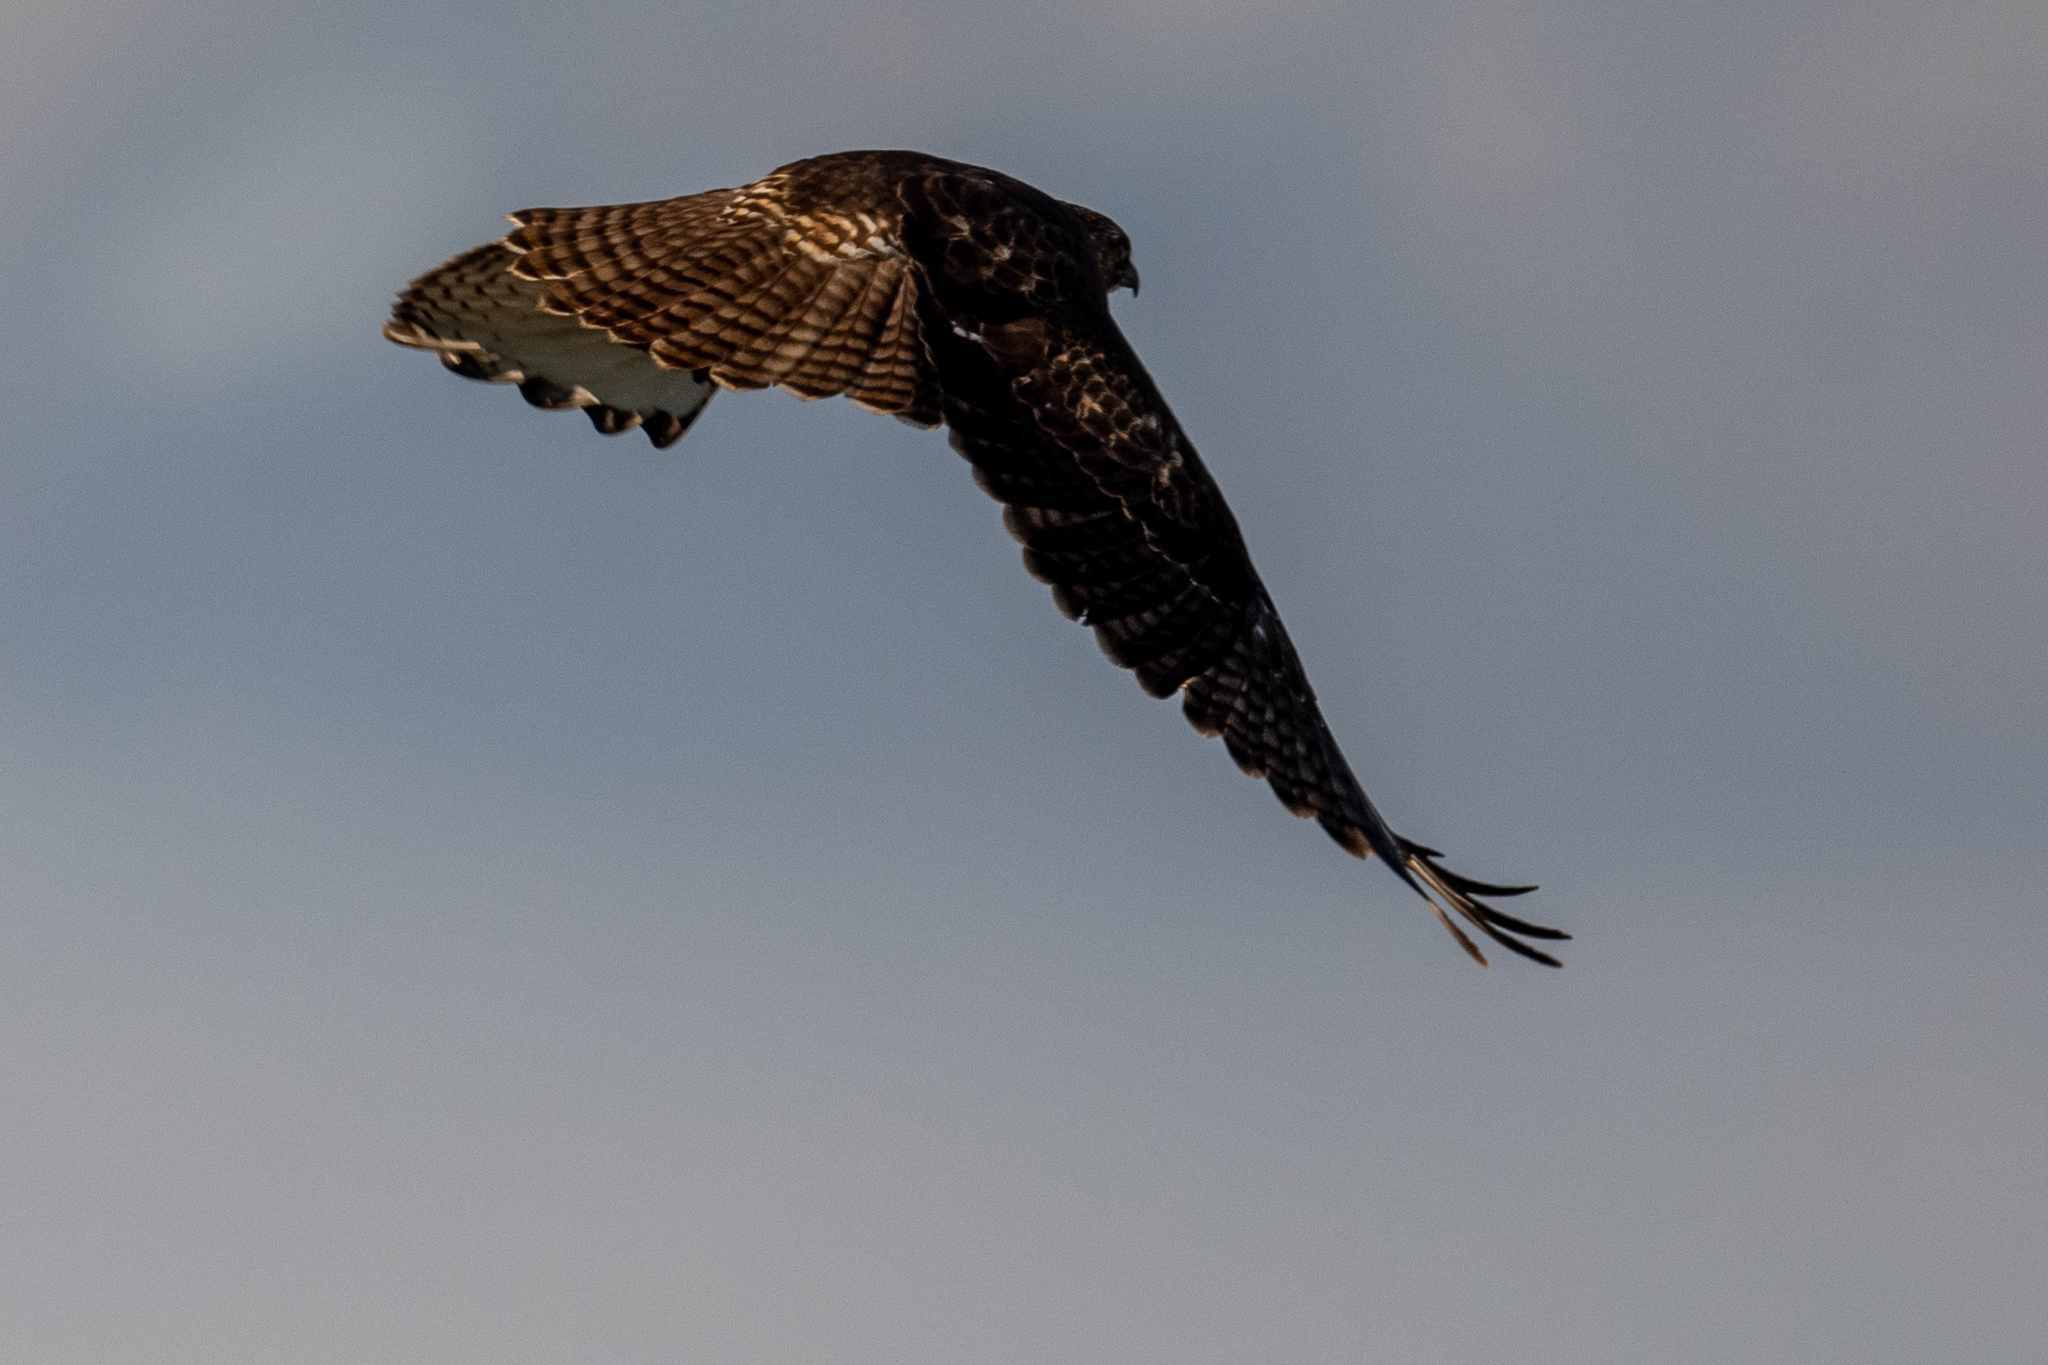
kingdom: Animalia
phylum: Chordata
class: Aves
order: Accipitriformes
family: Accipitridae
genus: Buteo
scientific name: Buteo jamaicensis
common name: Red-tailed hawk
